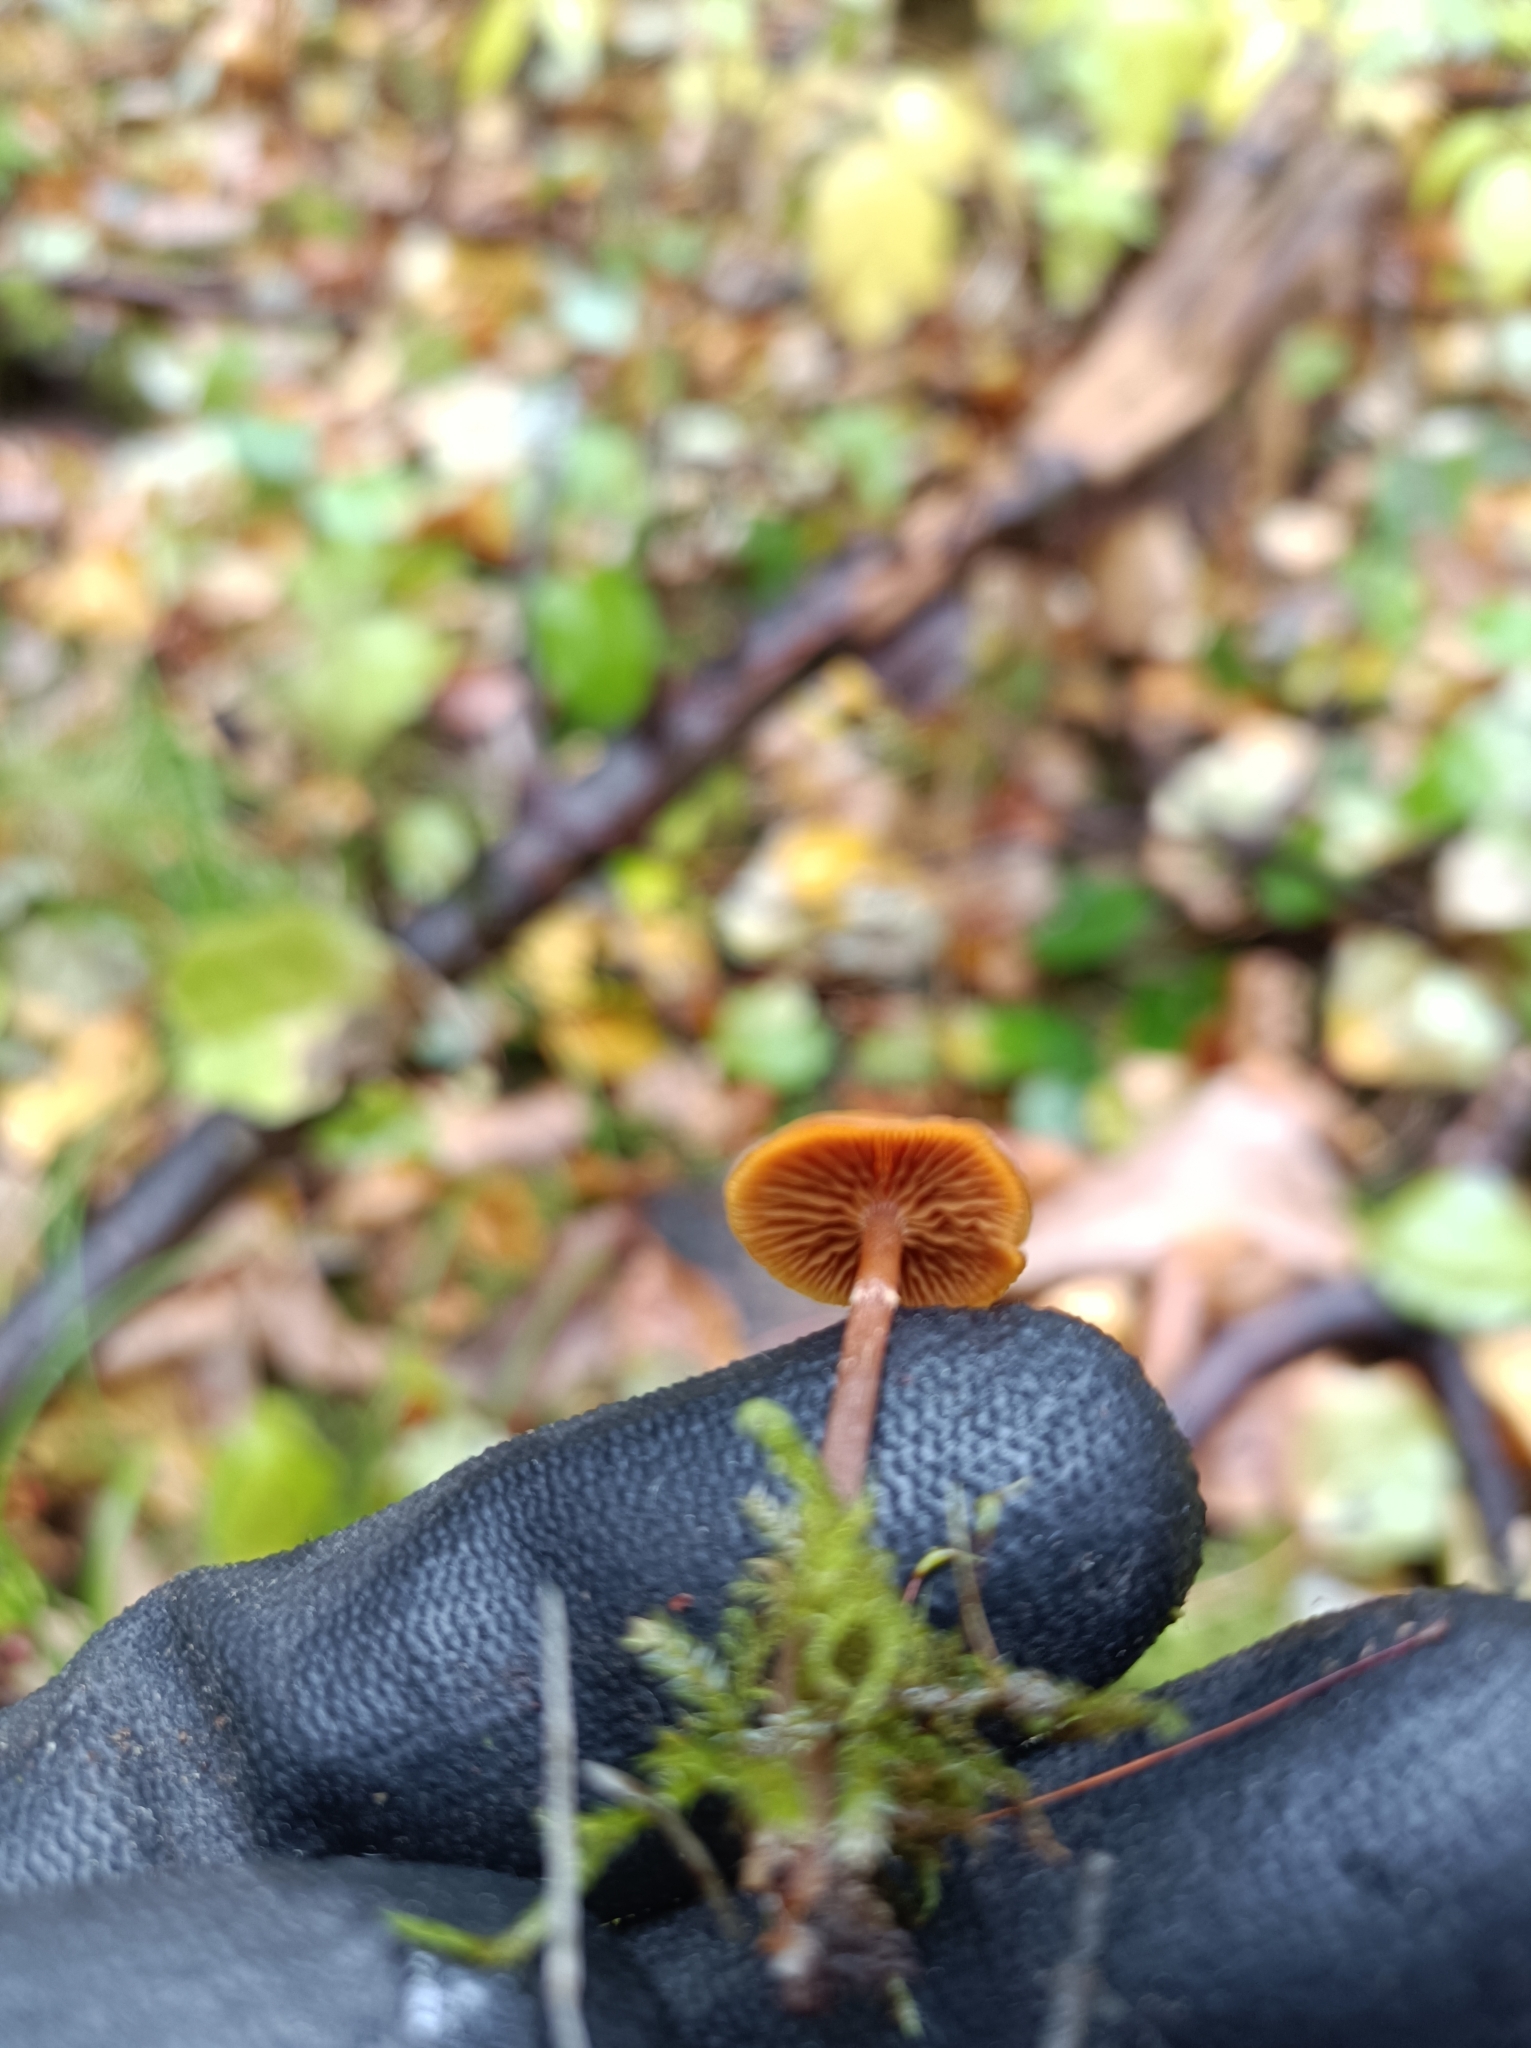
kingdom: Fungi
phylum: Basidiomycota
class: Agaricomycetes
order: Agaricales
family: Hymenogastraceae
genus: Galerina
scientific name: Galerina marginata
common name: Funeral bell
